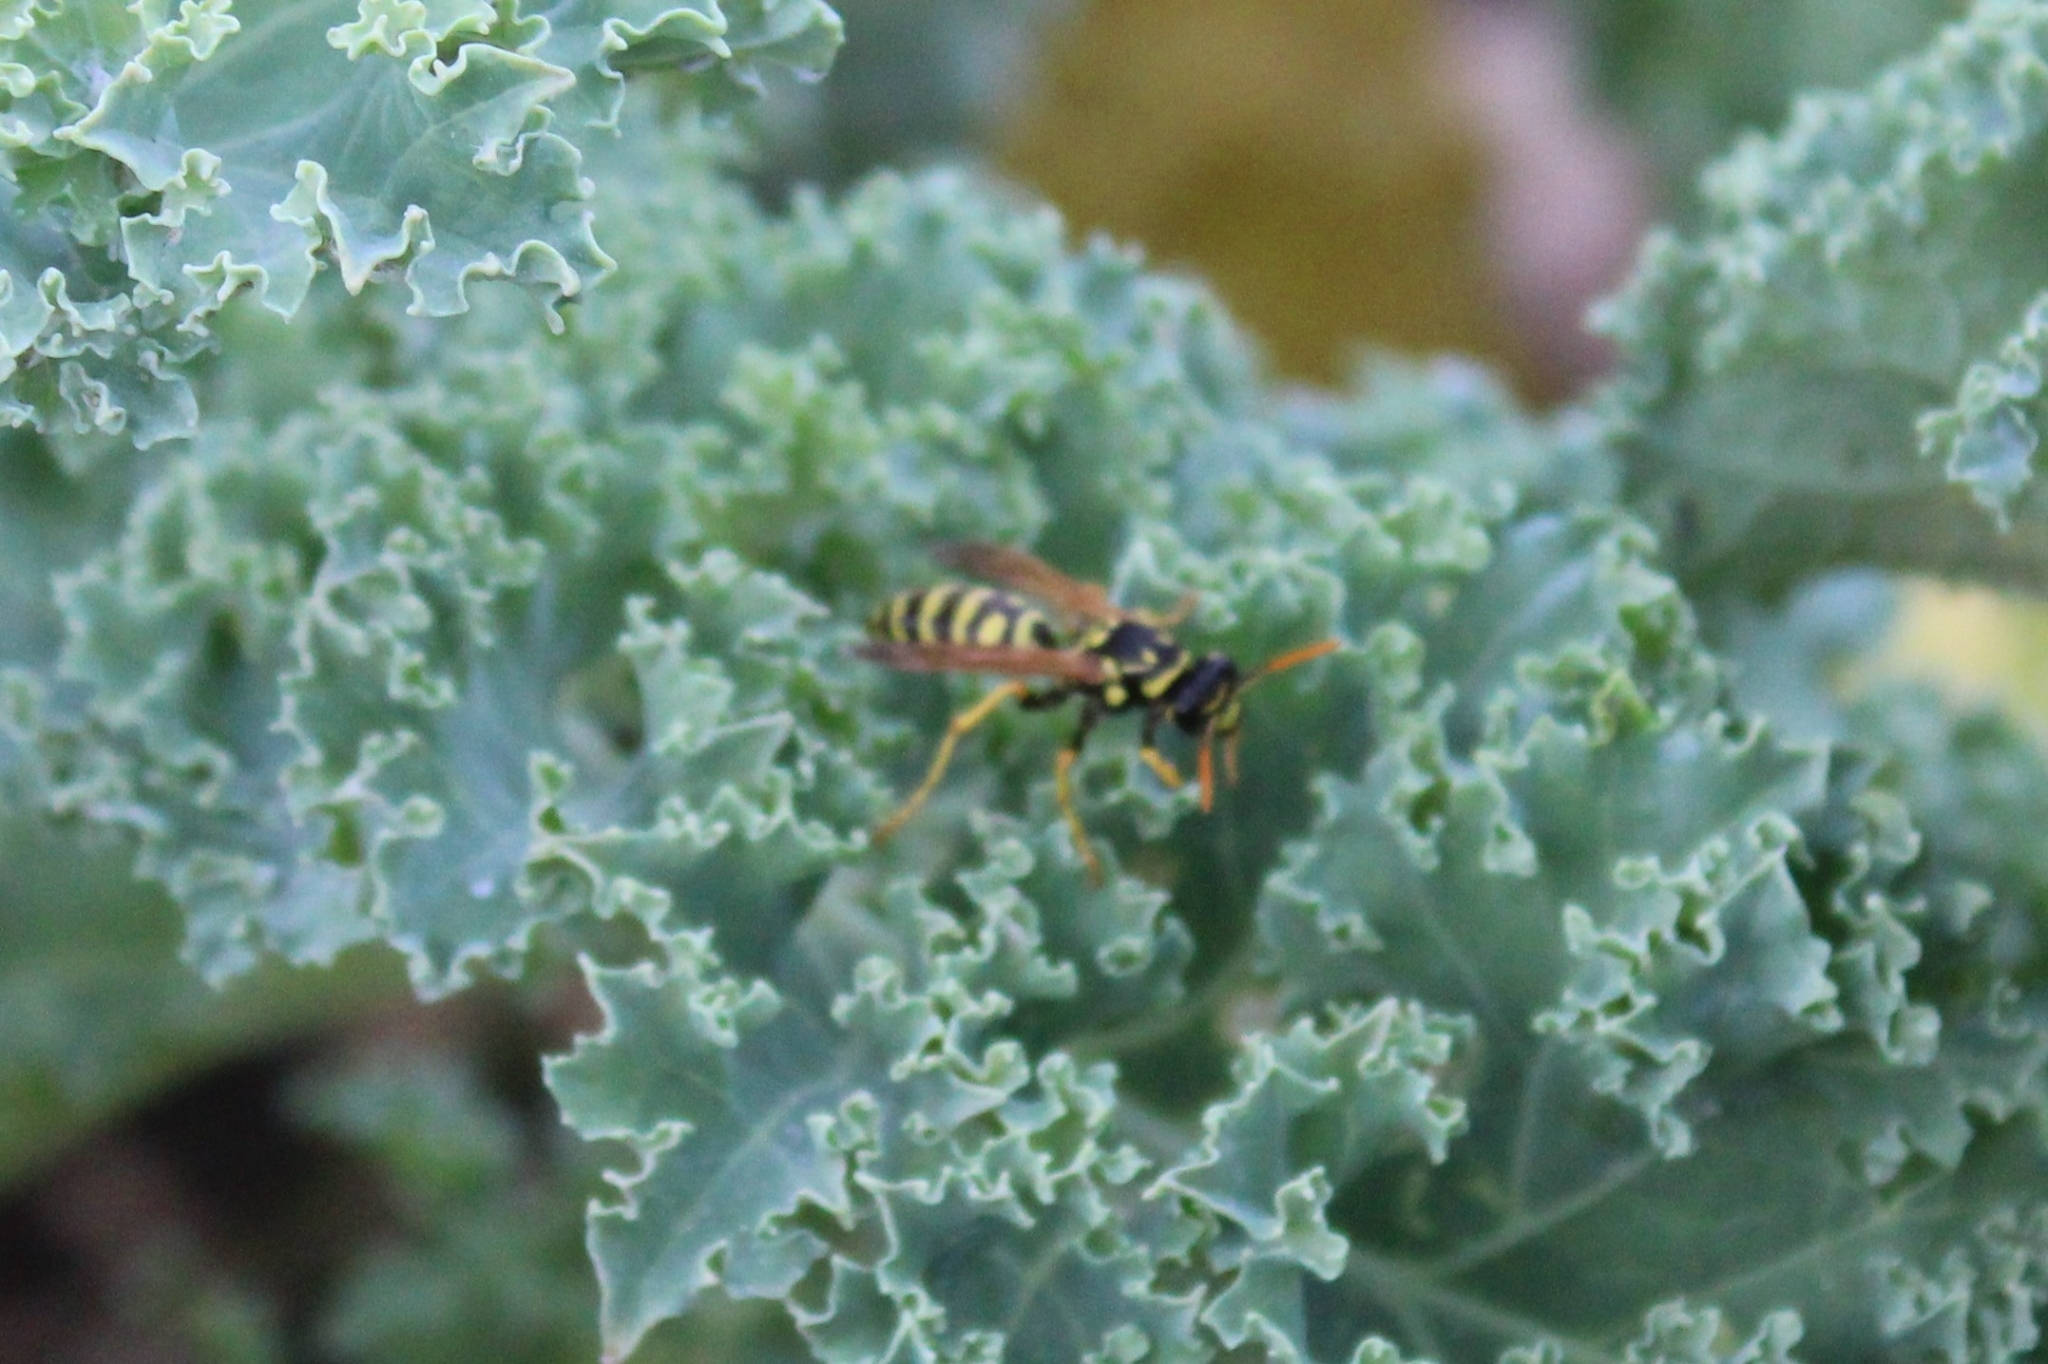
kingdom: Animalia
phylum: Arthropoda
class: Insecta
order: Hymenoptera
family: Eumenidae
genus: Polistes
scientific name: Polistes dominula
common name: Paper wasp
